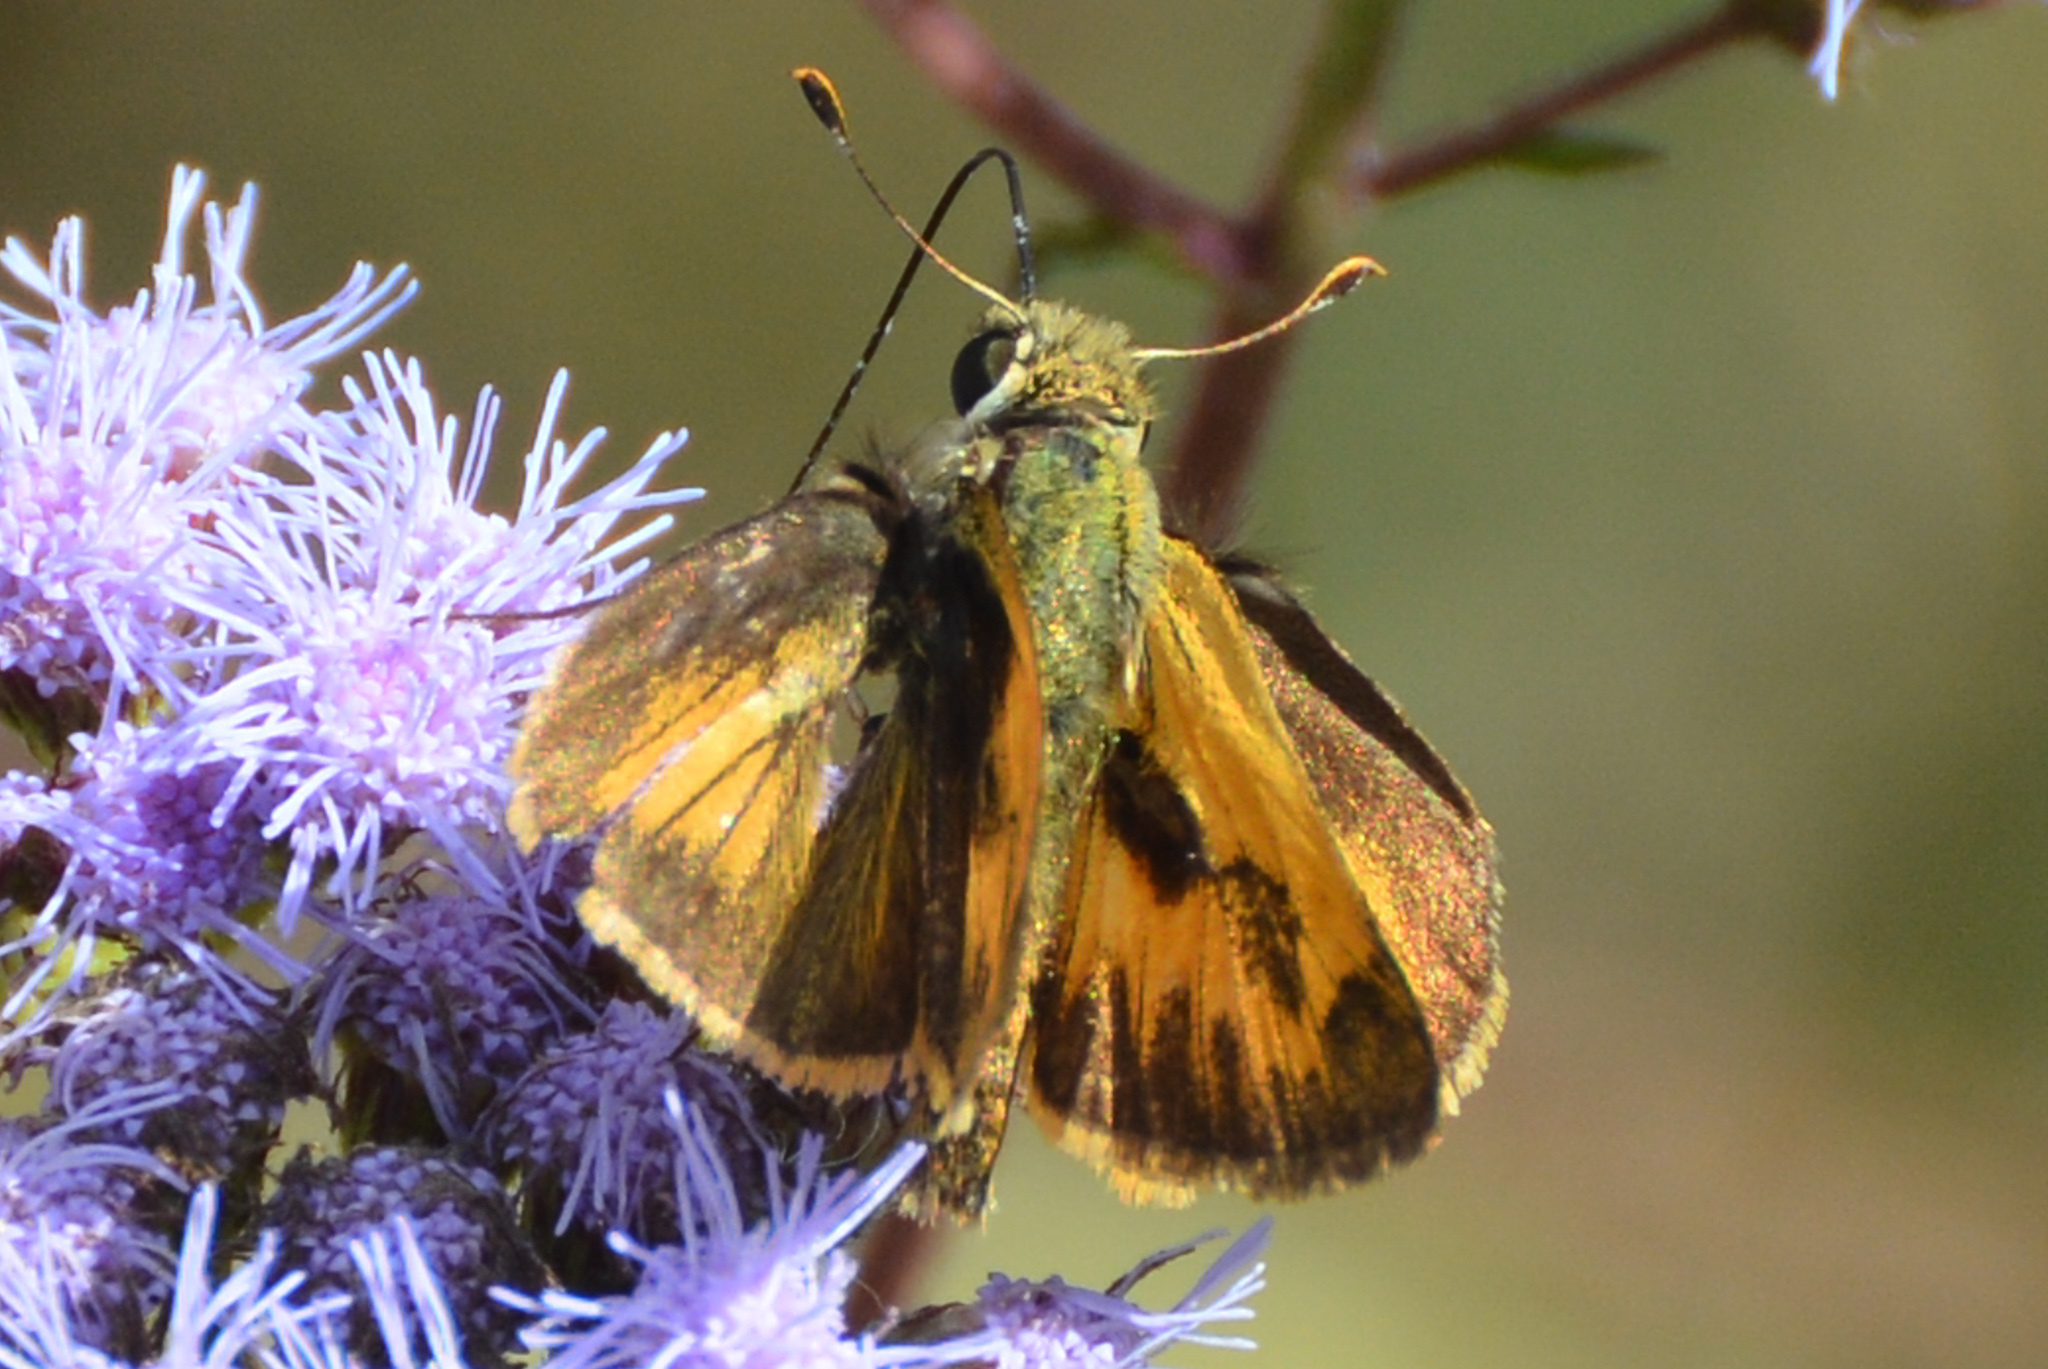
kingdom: Animalia
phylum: Arthropoda
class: Insecta
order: Lepidoptera
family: Hesperiidae
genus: Polites
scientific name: Polites vibex
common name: Whirlabout
